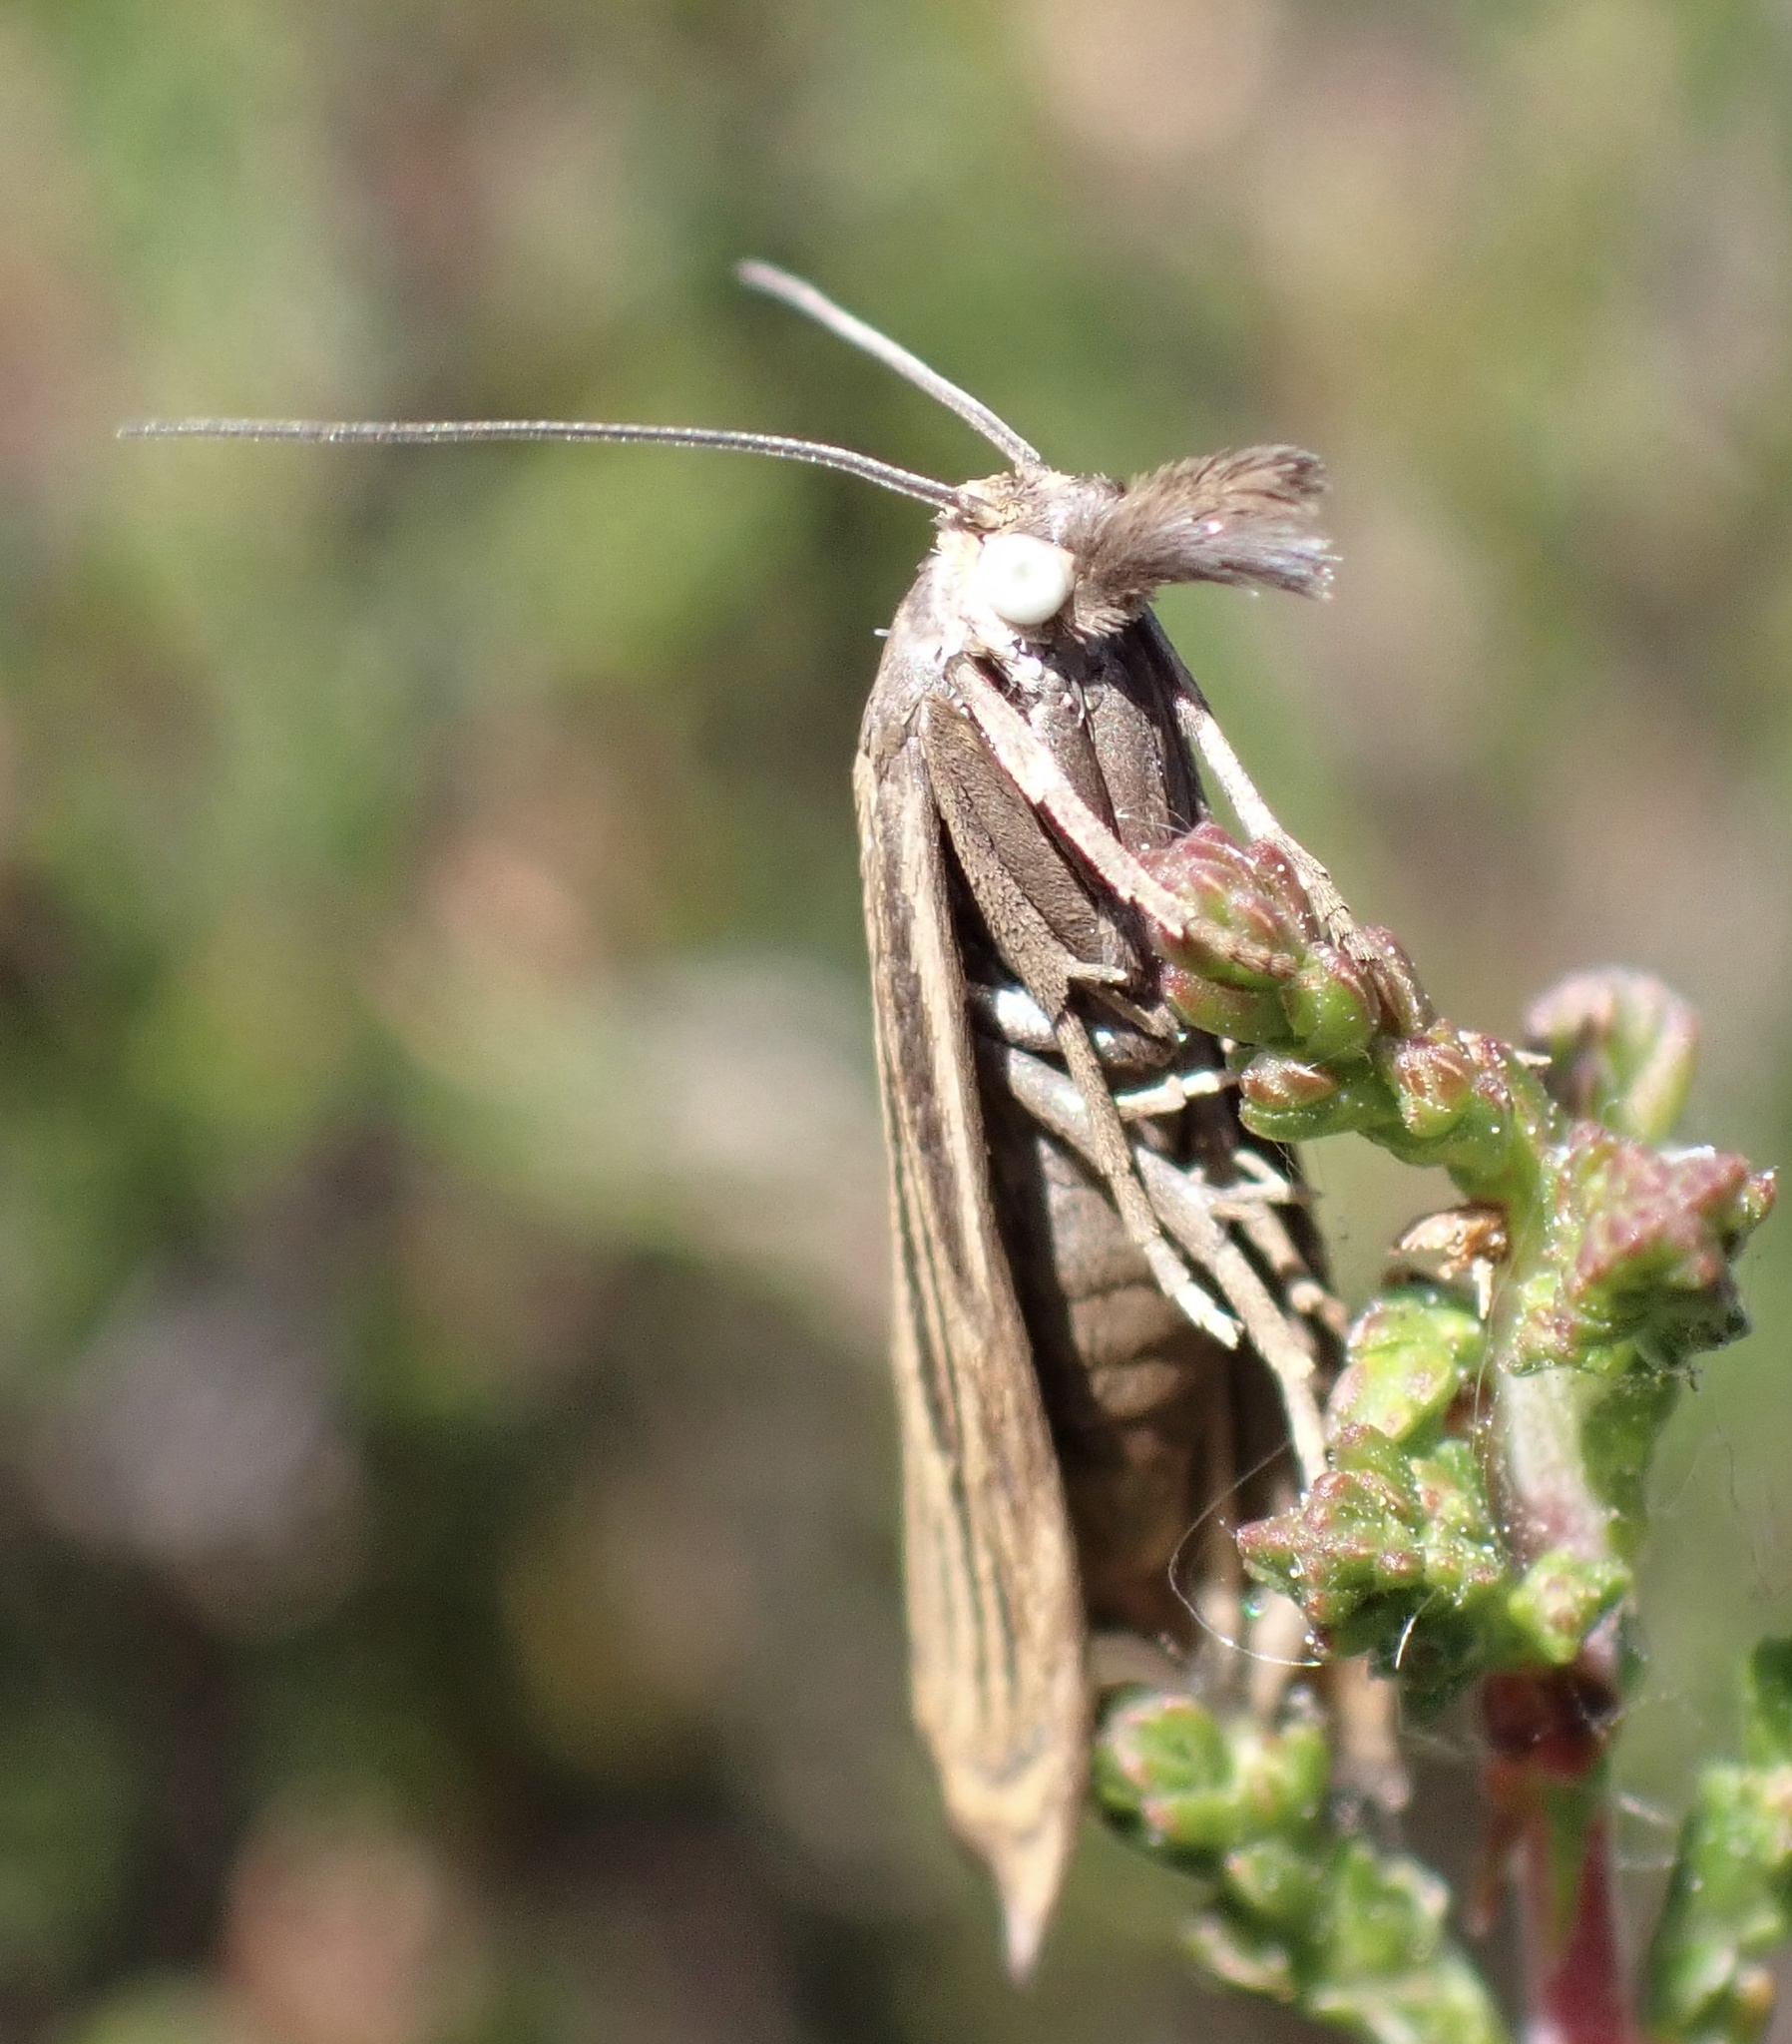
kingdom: Animalia
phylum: Arthropoda
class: Insecta
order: Lepidoptera
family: Crambidae
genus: Chrysoteuchia
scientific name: Chrysoteuchia culmella
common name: Garden grass-veneer
